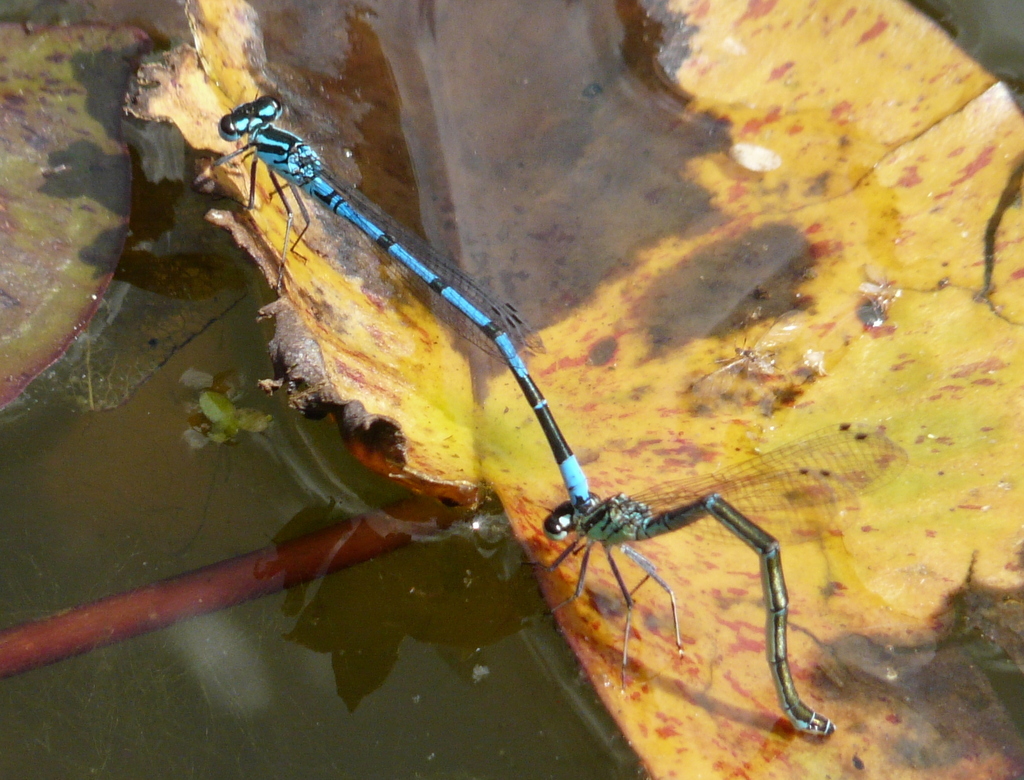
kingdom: Animalia
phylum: Arthropoda
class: Insecta
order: Odonata
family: Coenagrionidae
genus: Coenagrion
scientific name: Coenagrion puella
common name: Azure damselfly
